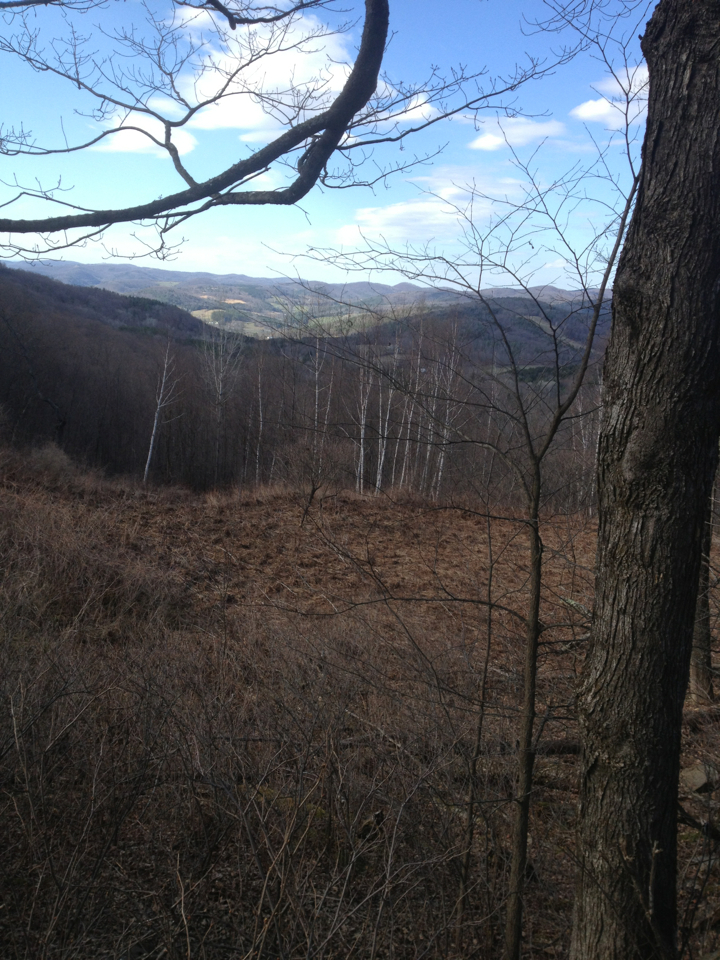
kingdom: Plantae
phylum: Tracheophyta
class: Magnoliopsida
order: Fagales
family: Betulaceae
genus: Betula
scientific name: Betula papyrifera
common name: Paper birch
